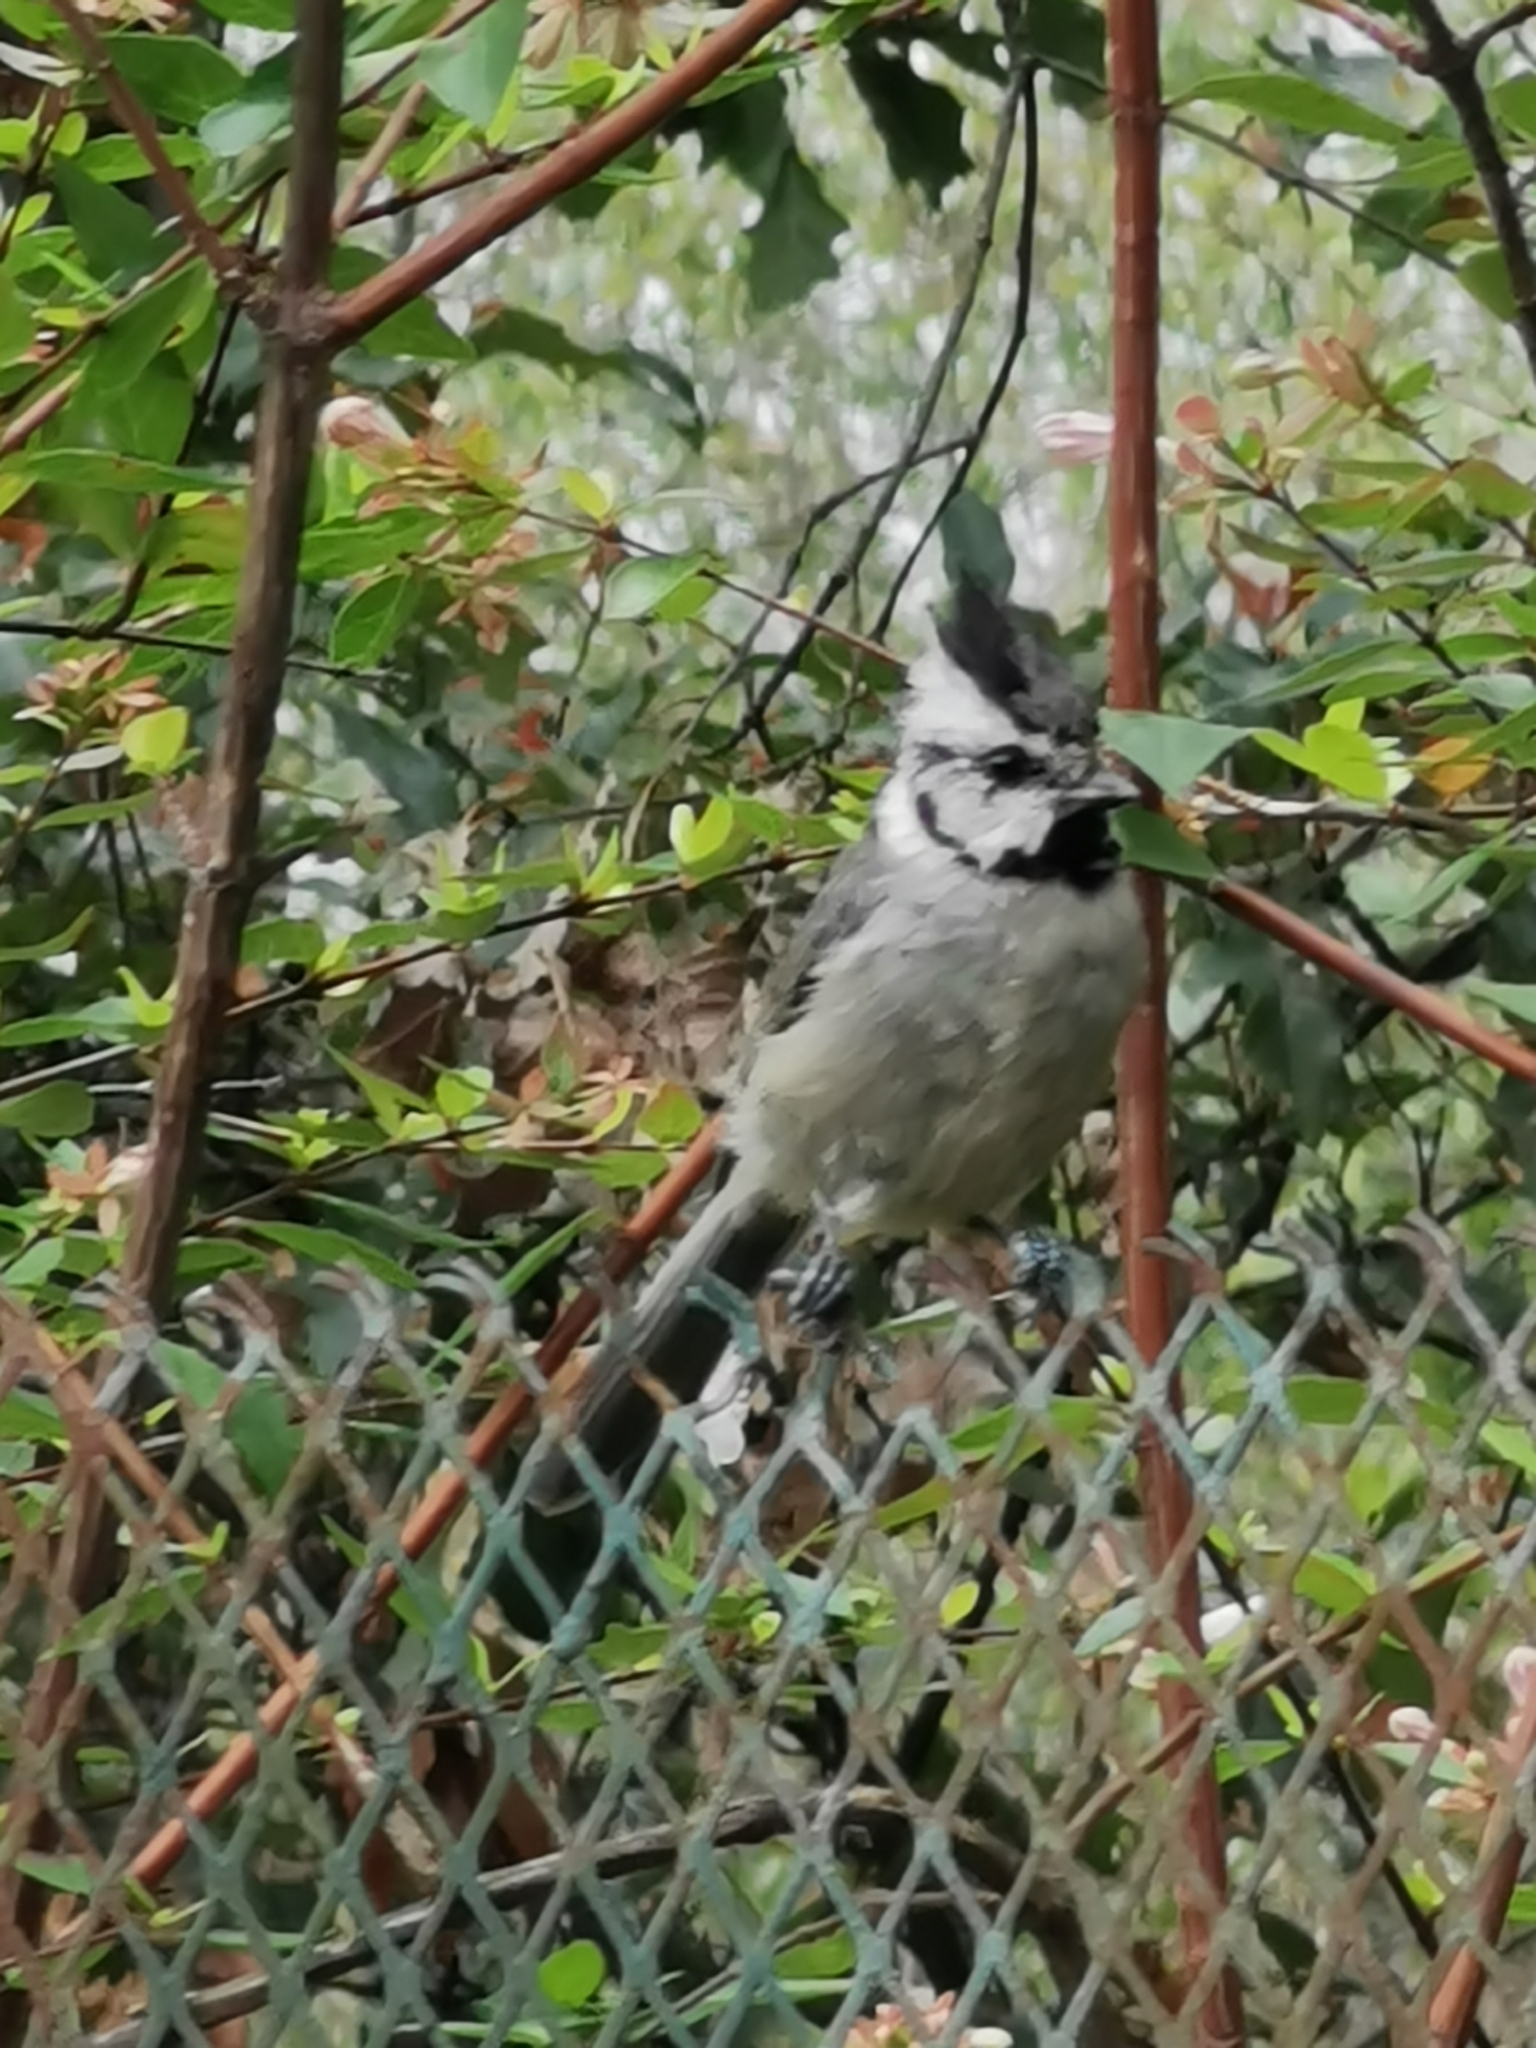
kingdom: Animalia
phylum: Chordata
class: Aves
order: Passeriformes
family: Paridae
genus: Baeolophus
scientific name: Baeolophus wollweberi
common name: Bridled titmouse
